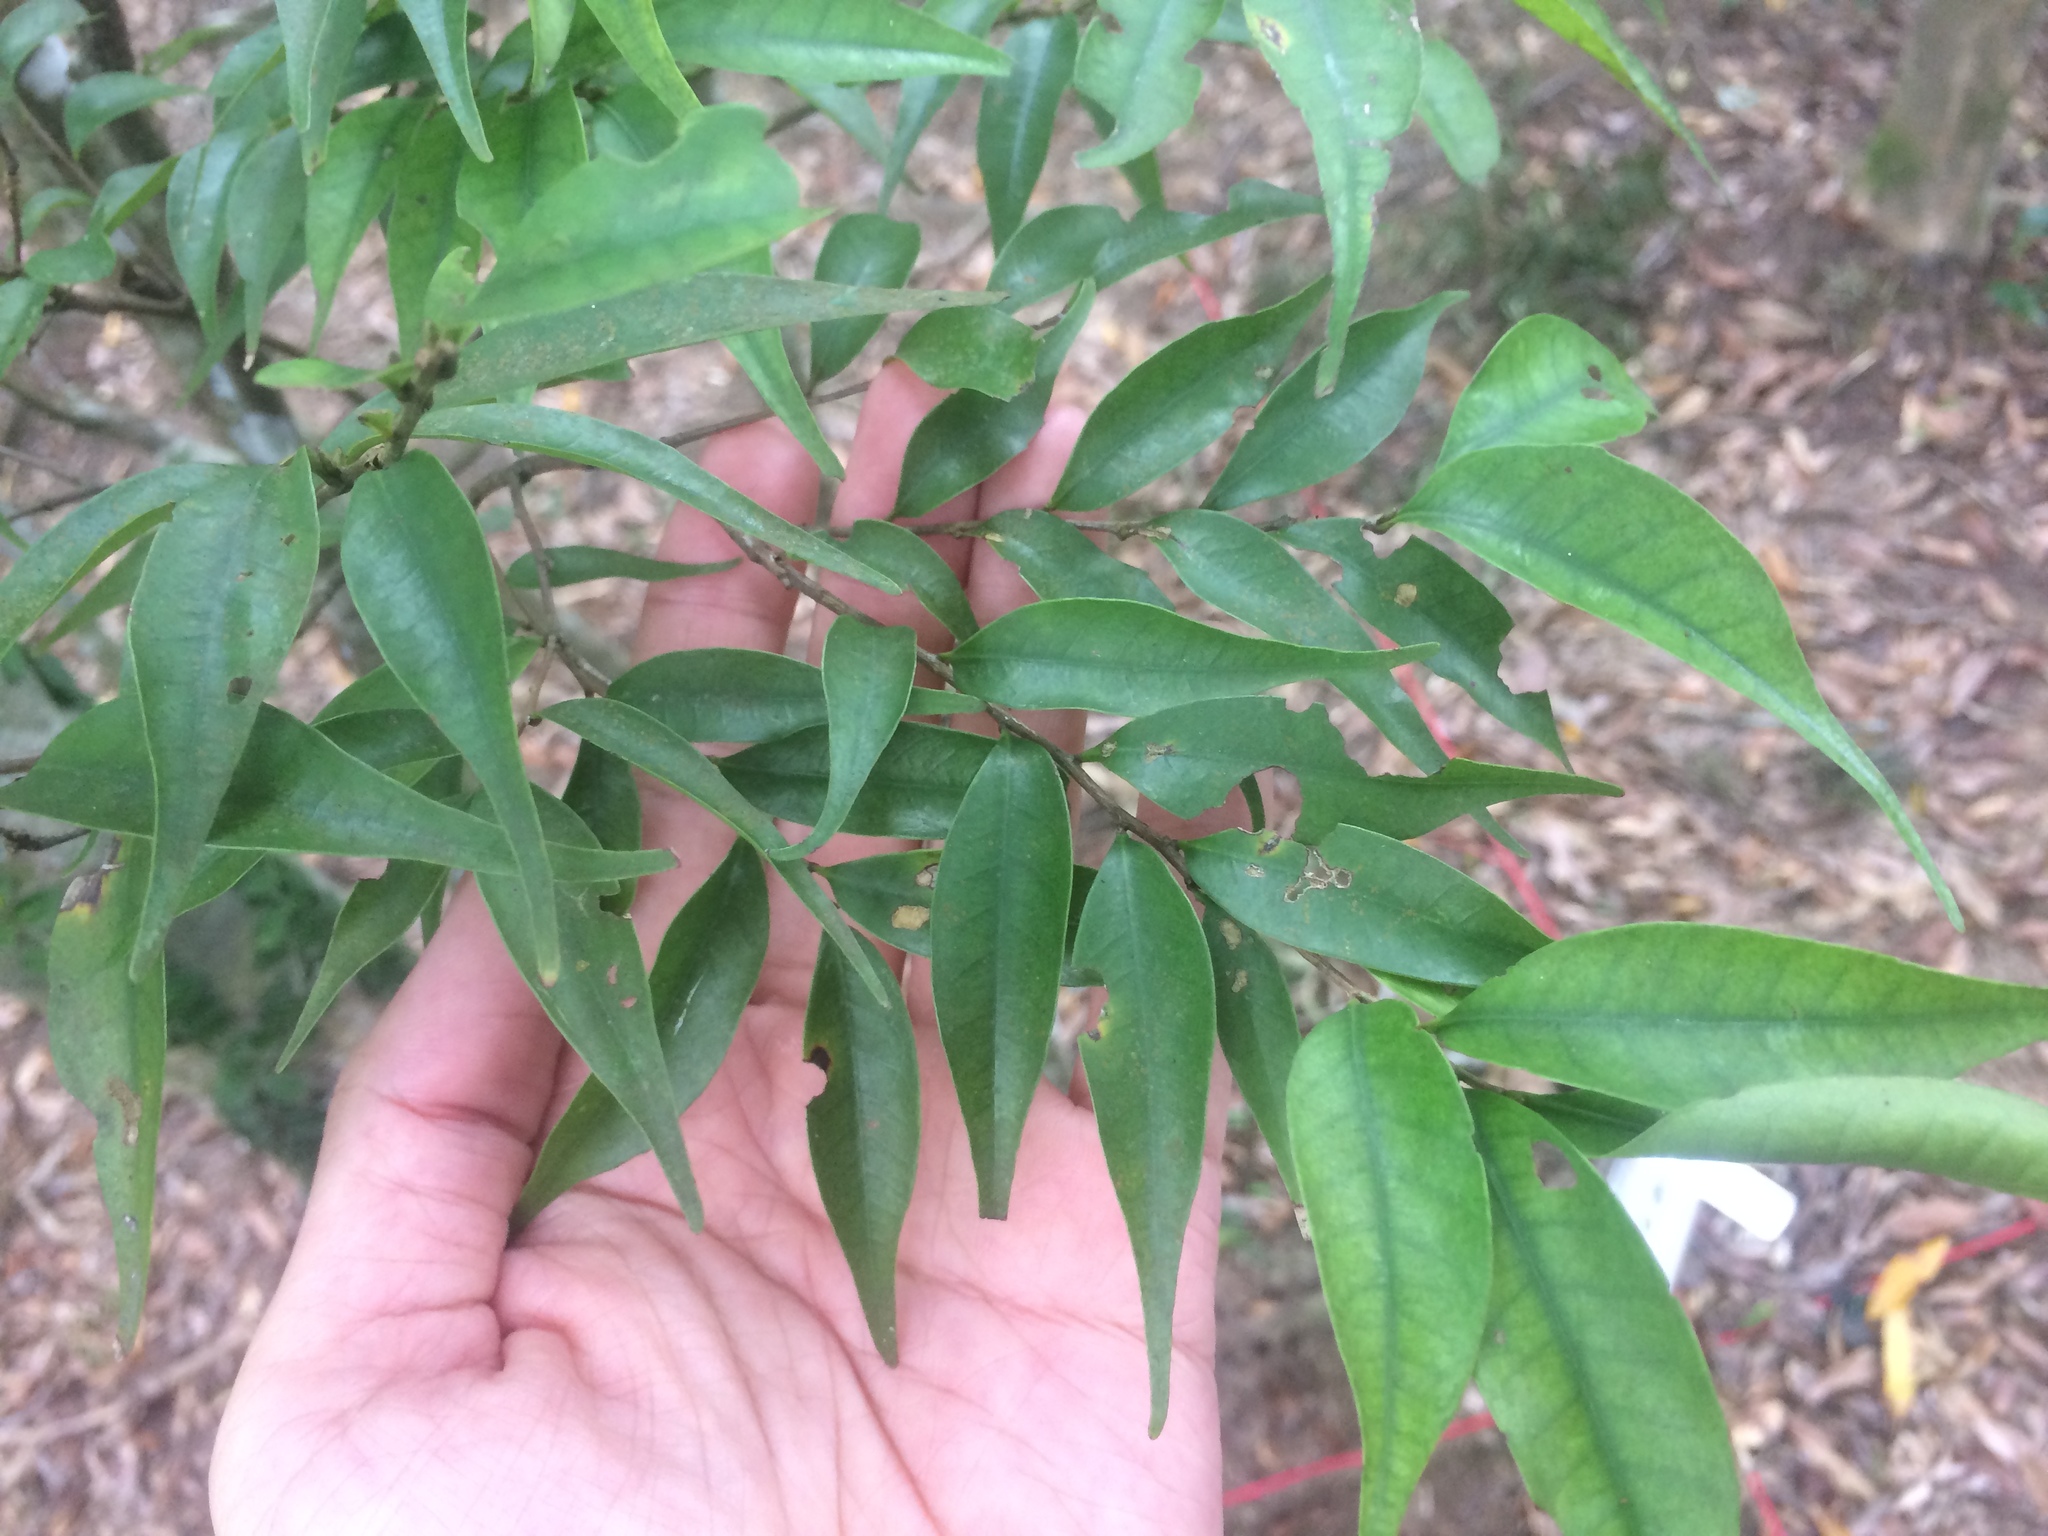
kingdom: Plantae
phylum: Tracheophyta
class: Magnoliopsida
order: Fagales
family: Fagaceae
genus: Lithocarpus
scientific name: Lithocarpus uraianus
